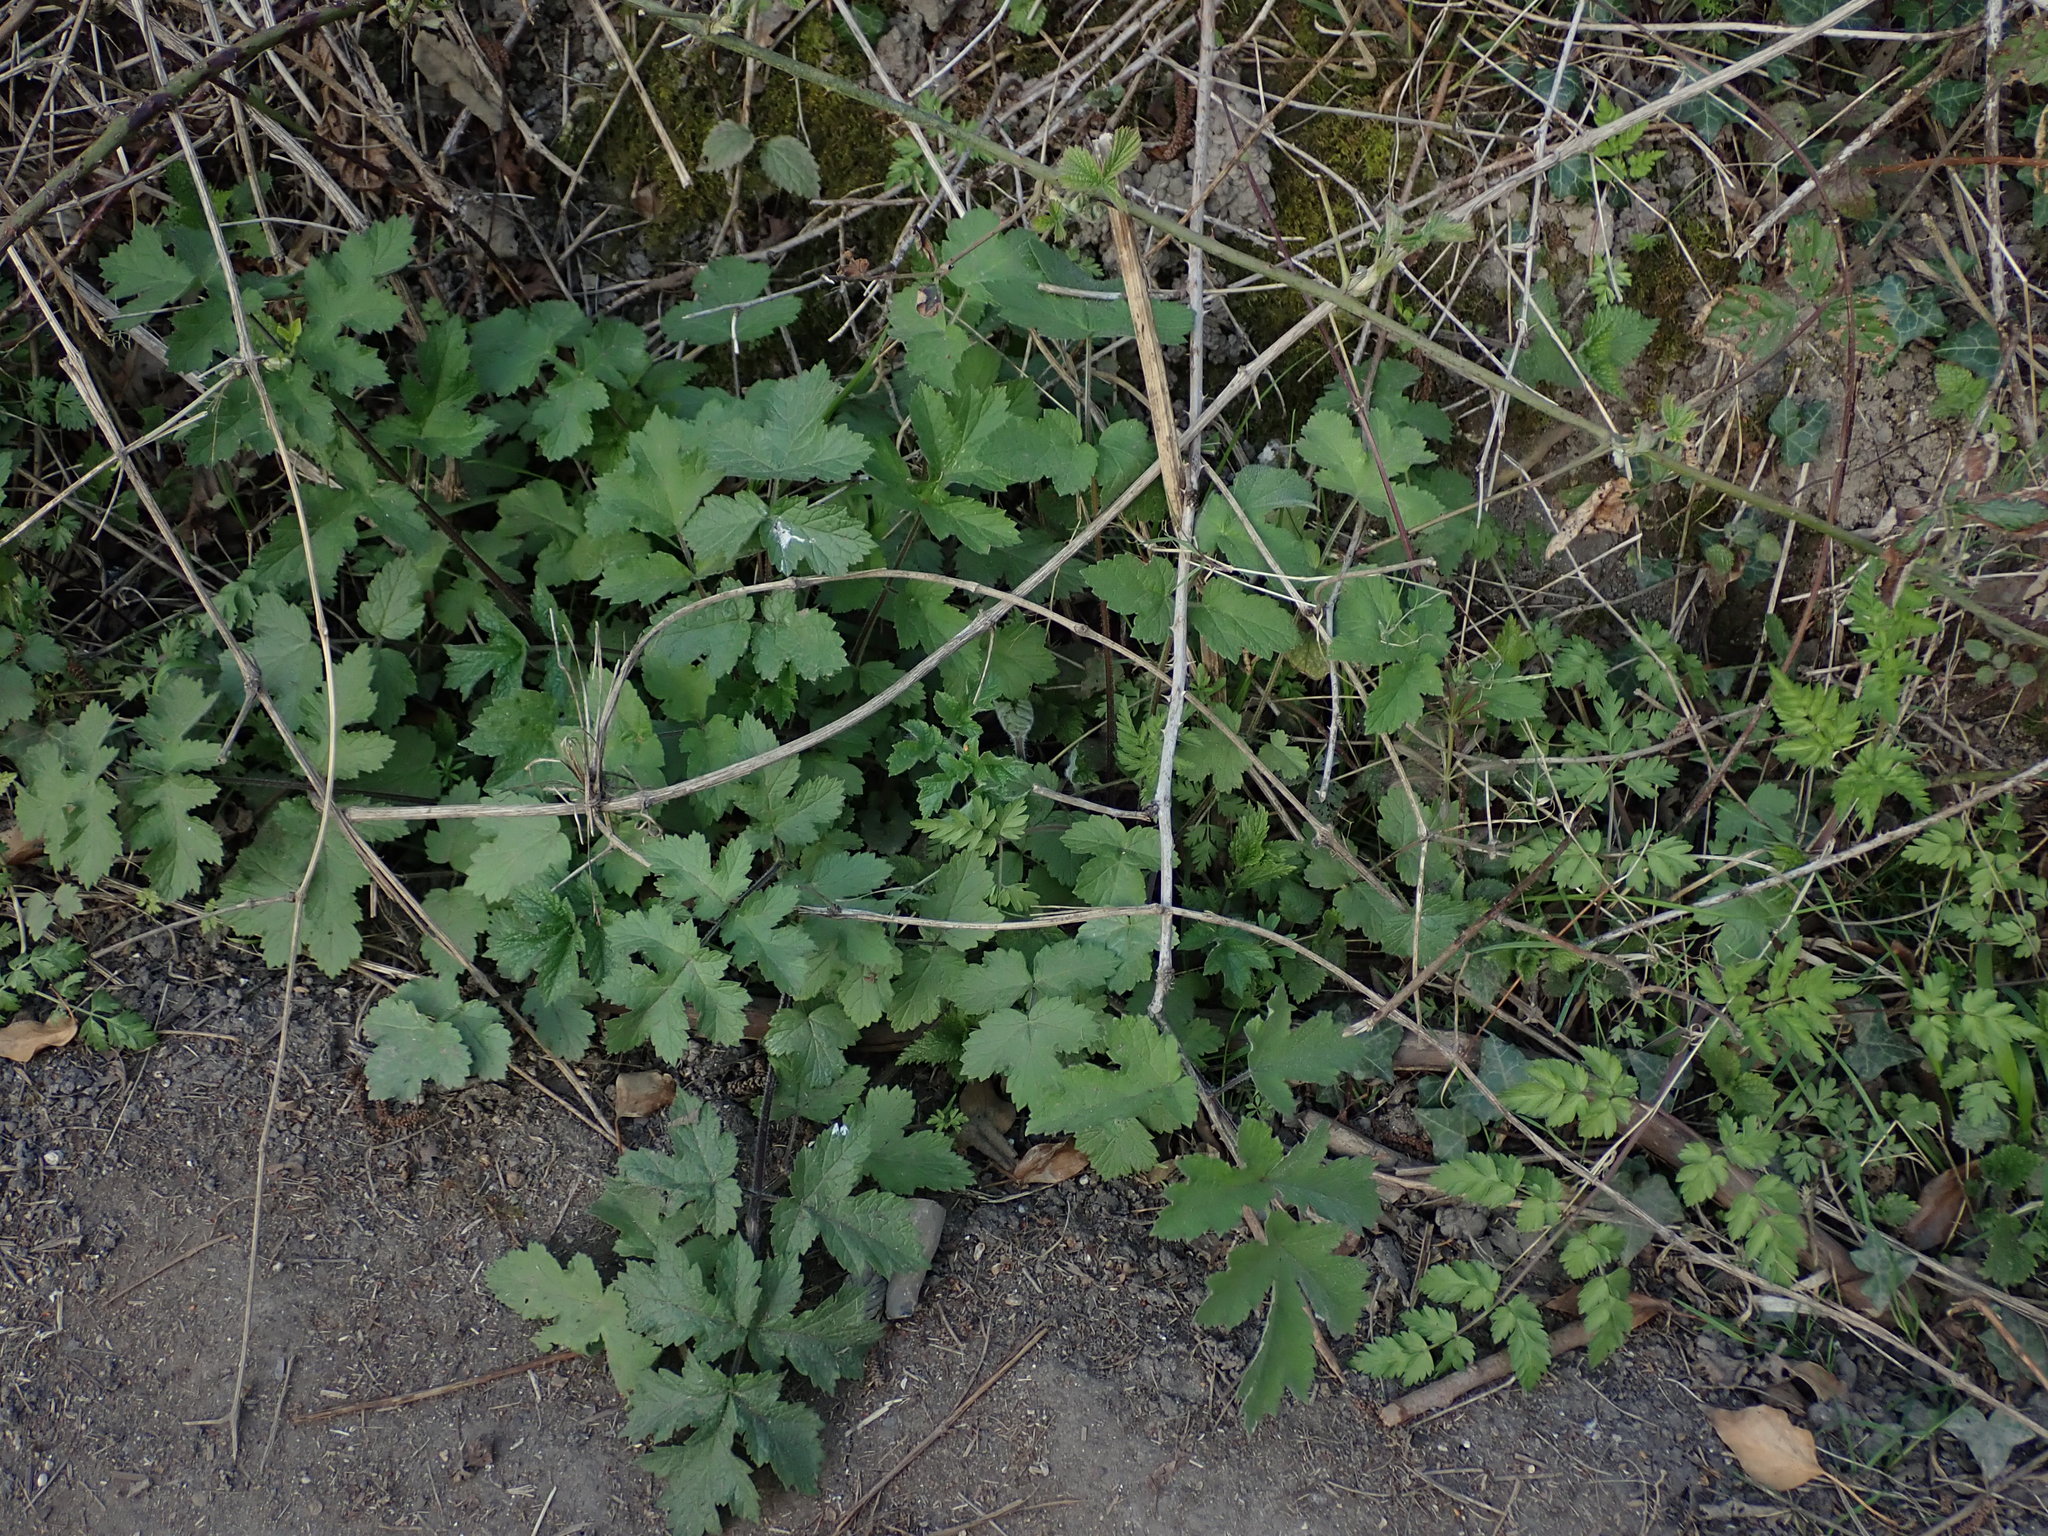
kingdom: Plantae
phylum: Tracheophyta
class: Magnoliopsida
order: Apiales
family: Apiaceae
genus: Heracleum
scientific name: Heracleum sphondylium
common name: Hogweed
